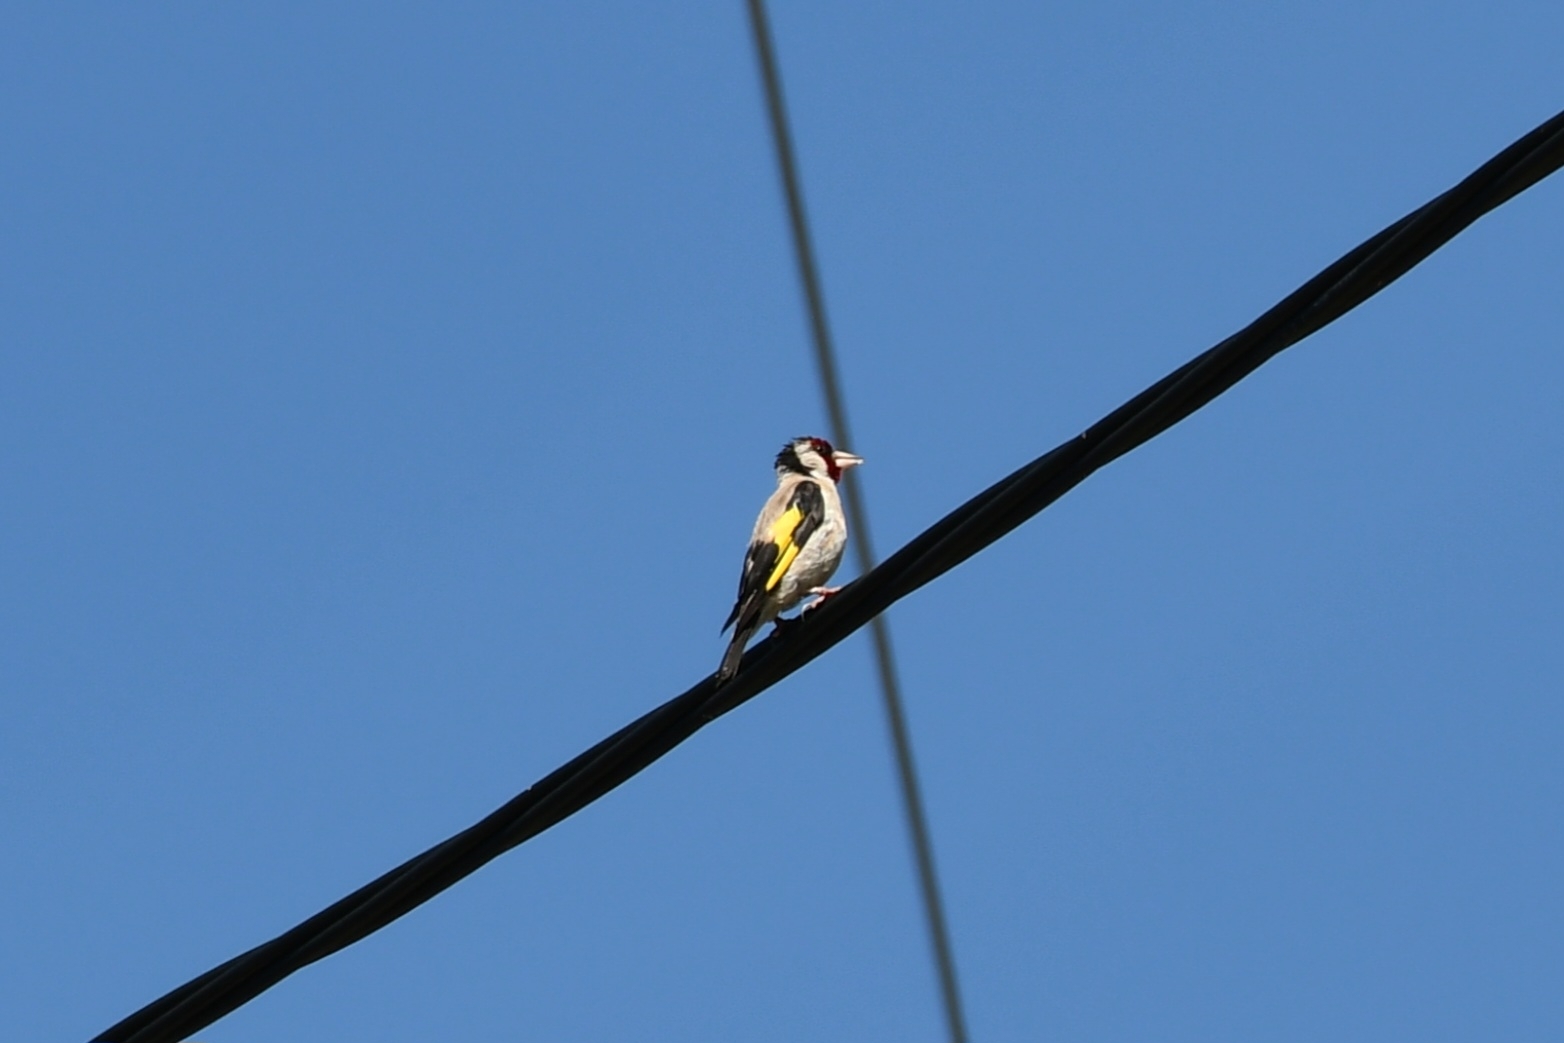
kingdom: Animalia
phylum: Chordata
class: Aves
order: Passeriformes
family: Fringillidae
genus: Carduelis
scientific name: Carduelis carduelis
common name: European goldfinch
